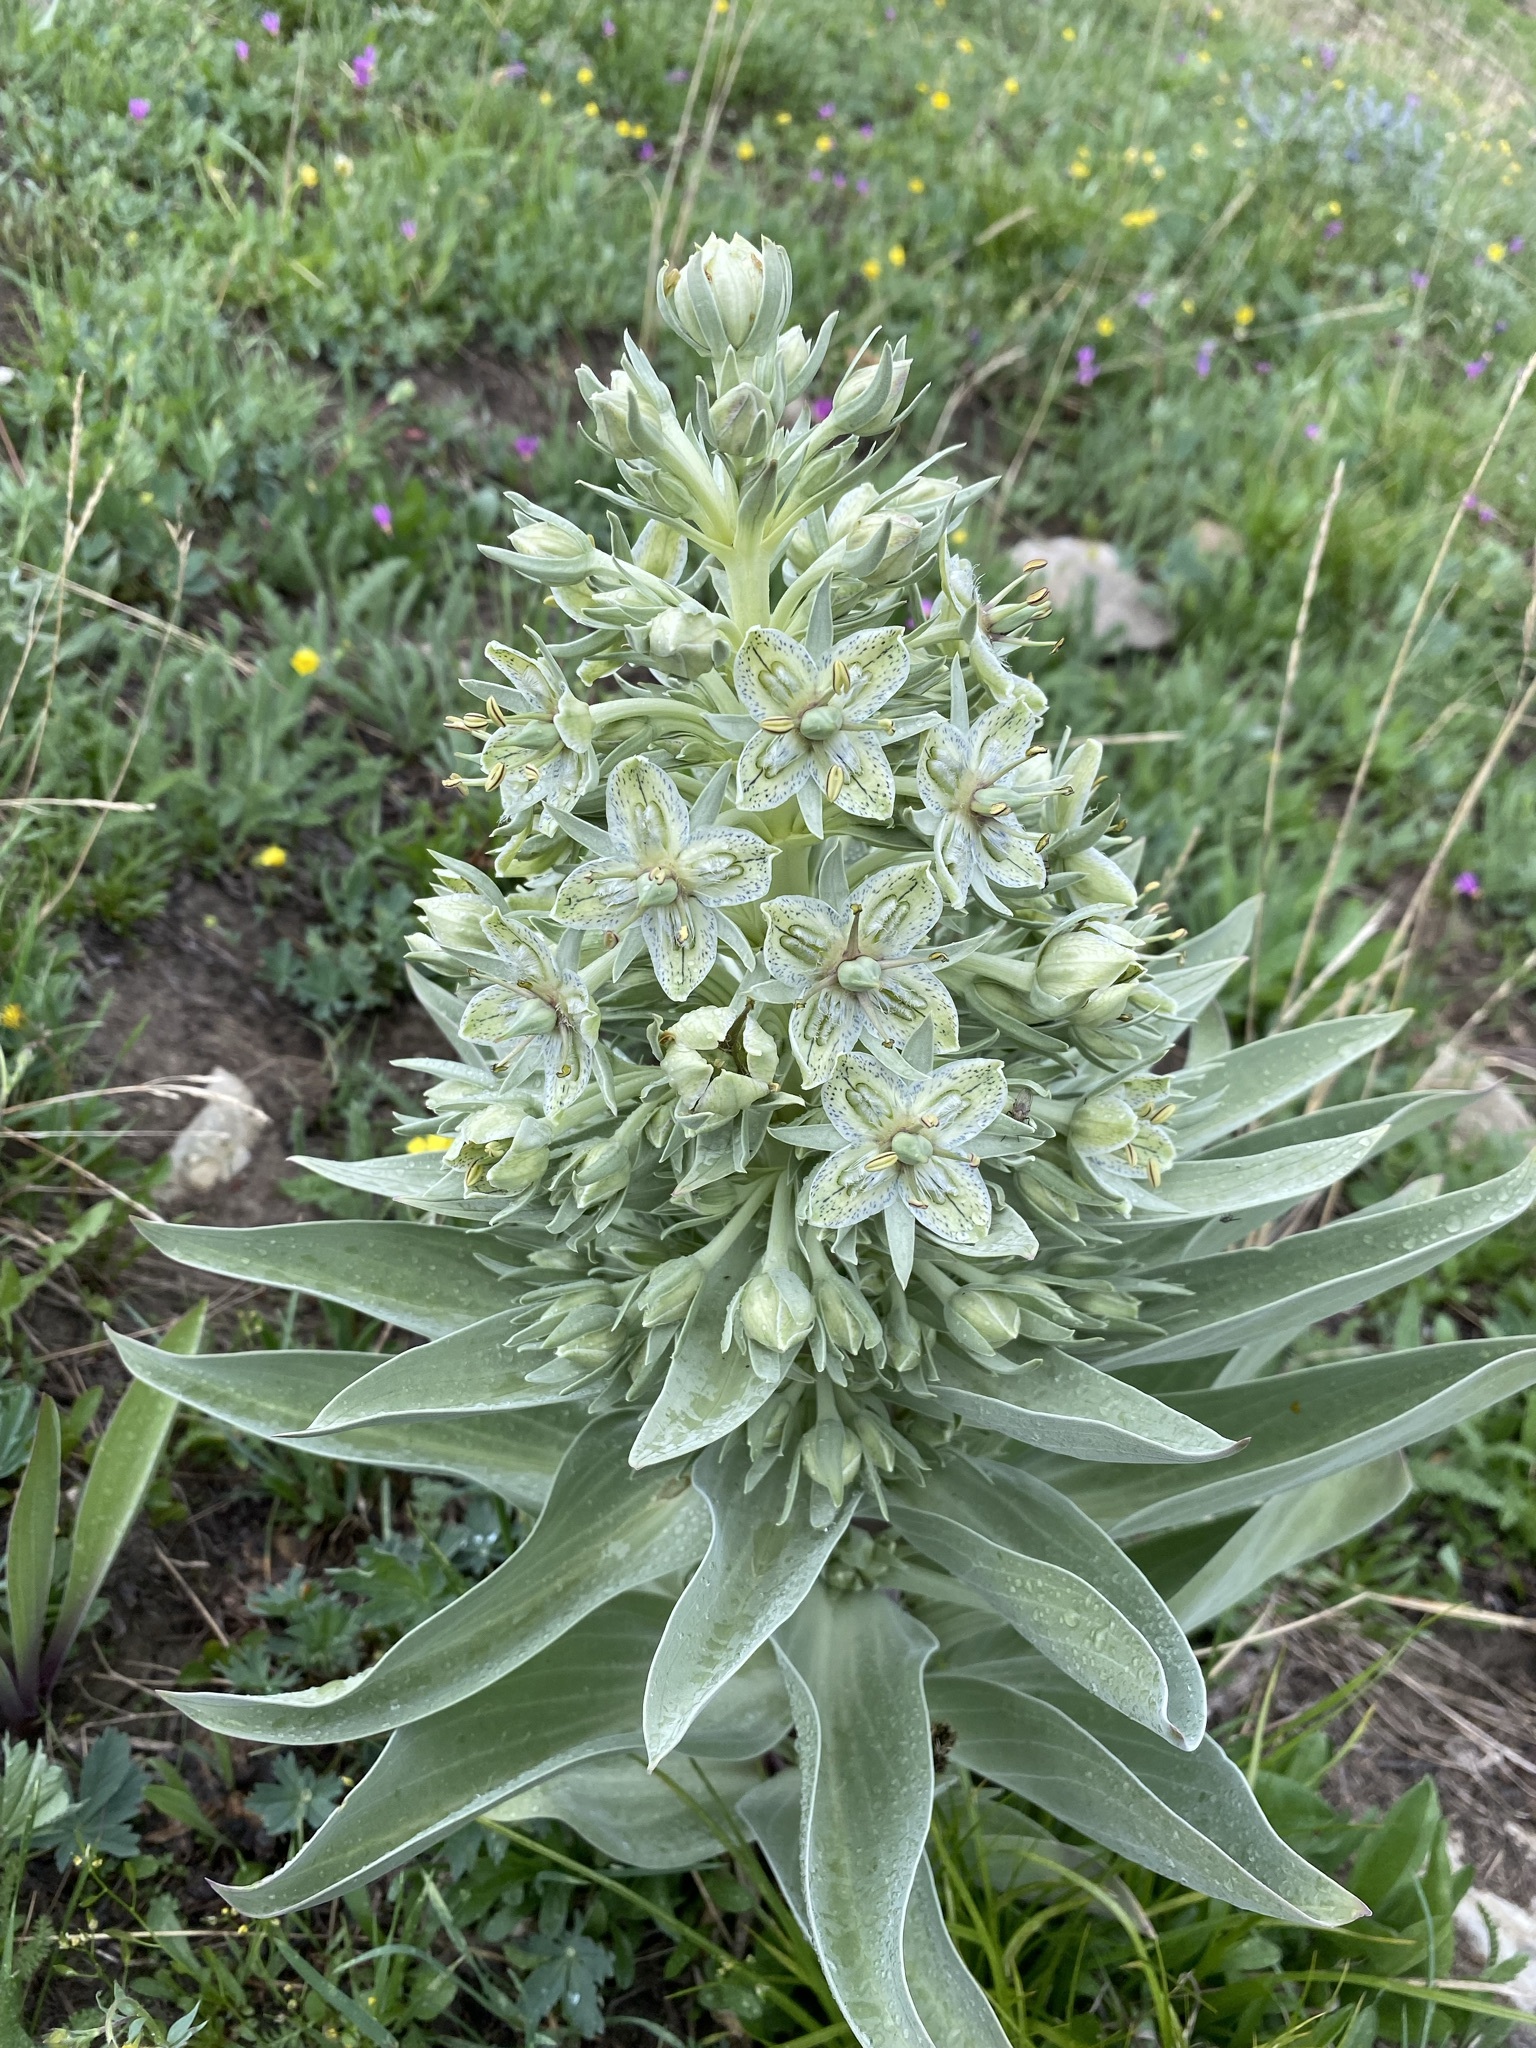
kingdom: Plantae
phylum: Tracheophyta
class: Magnoliopsida
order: Gentianales
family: Gentianaceae
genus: Frasera
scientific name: Frasera speciosa
